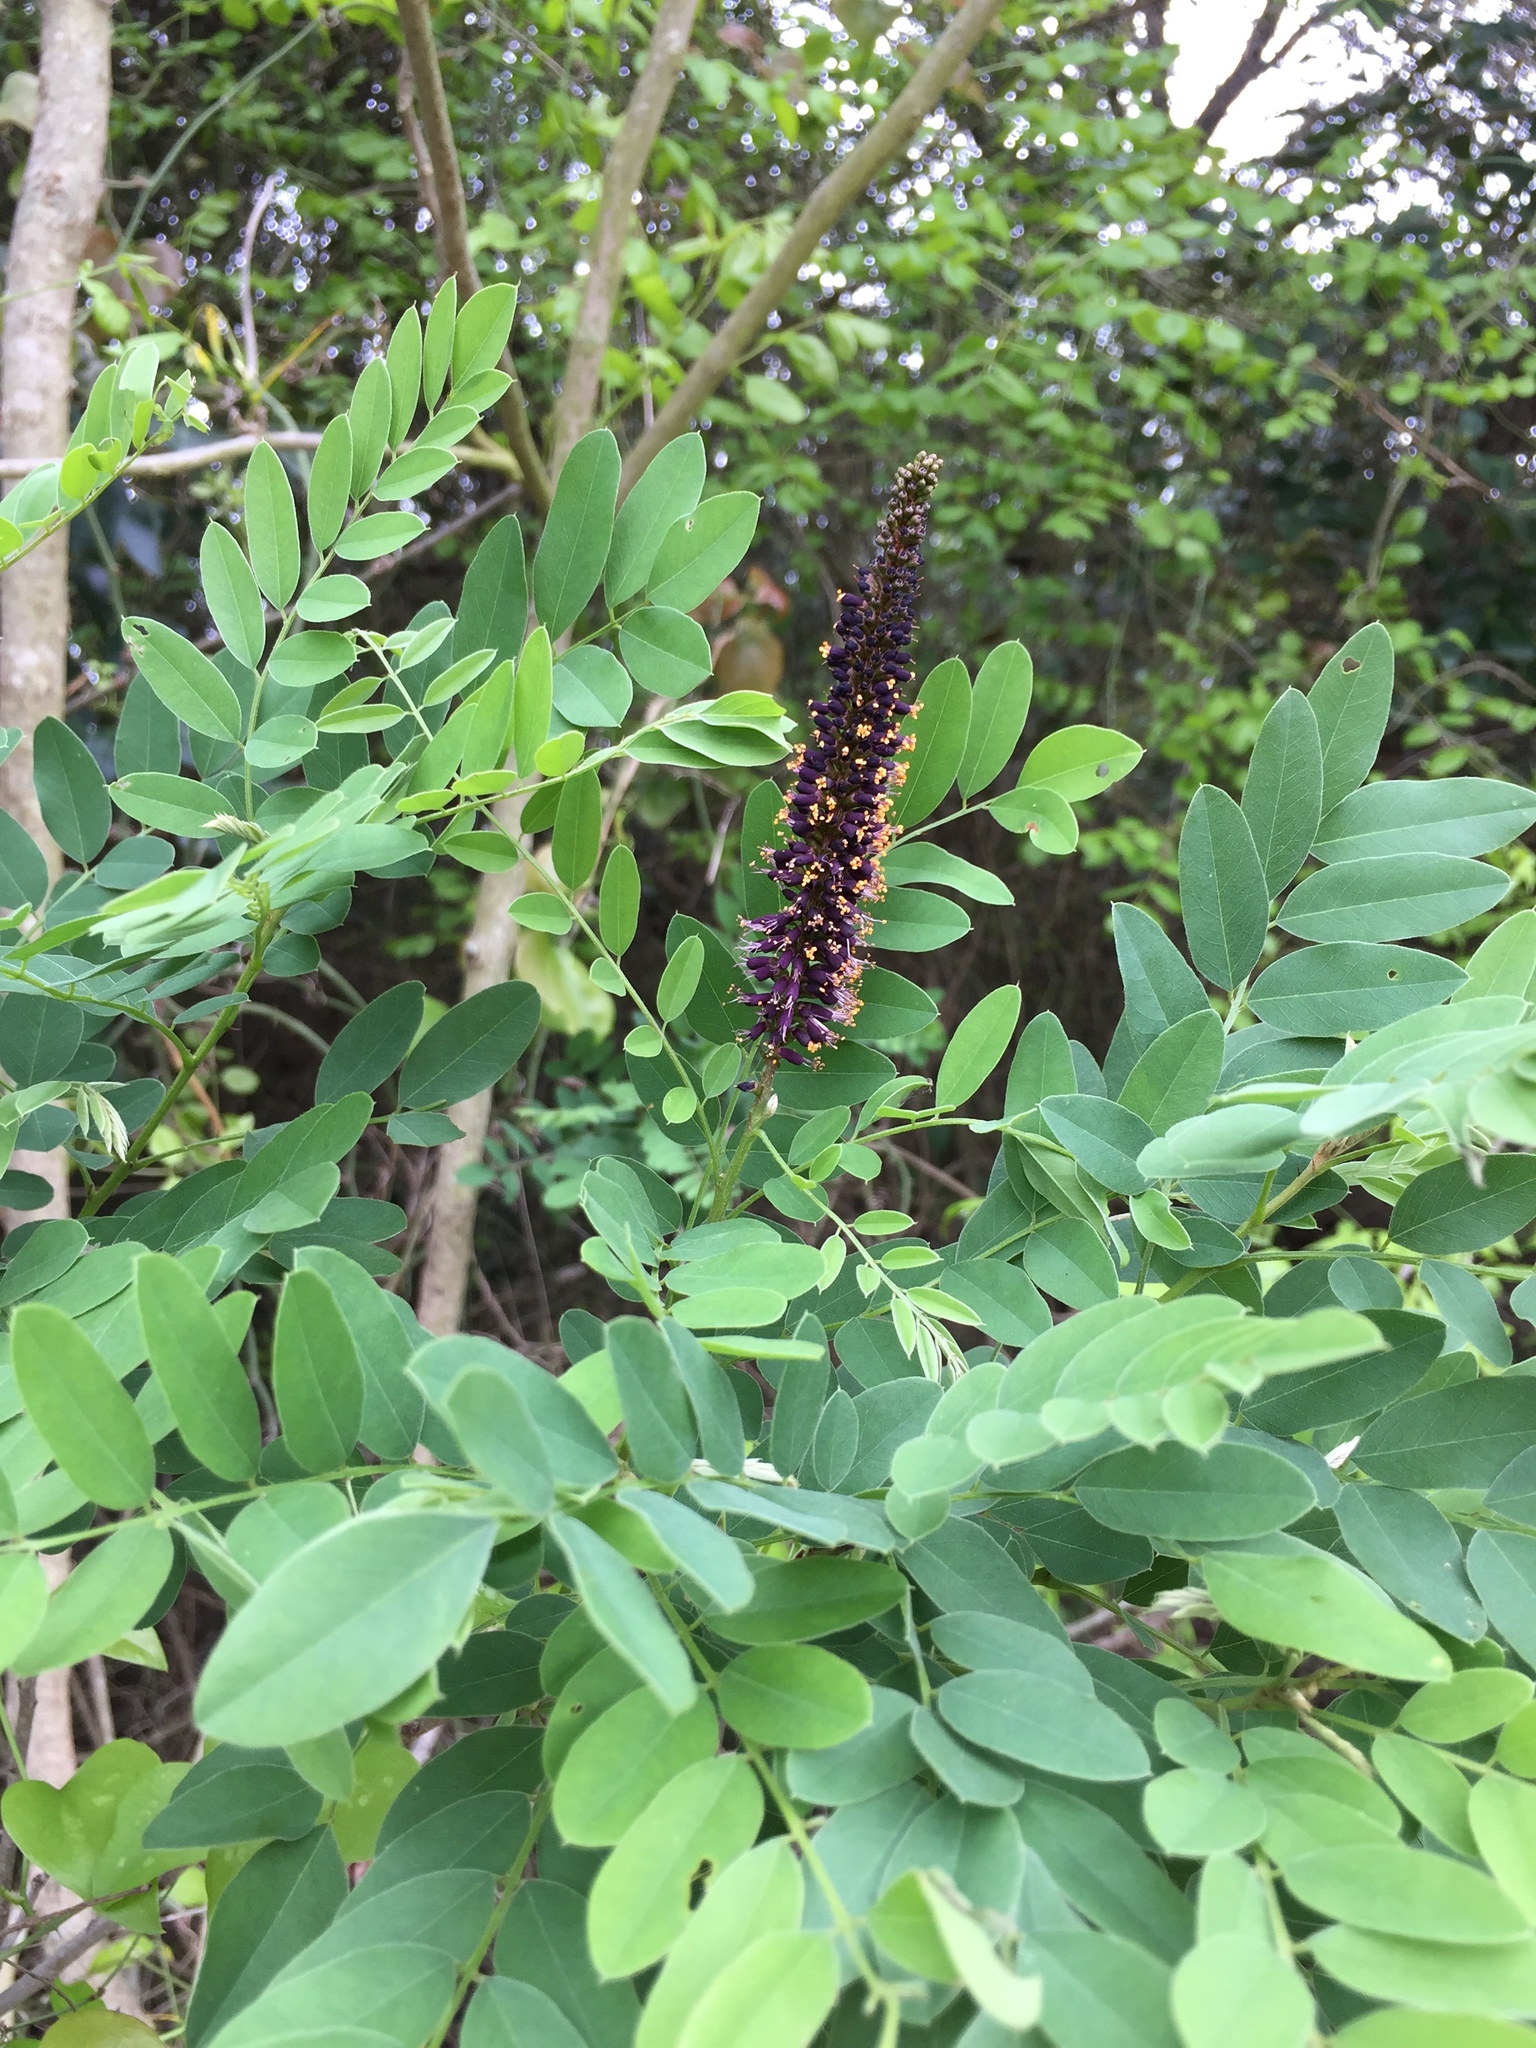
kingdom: Plantae
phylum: Tracheophyta
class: Magnoliopsida
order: Fabales
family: Fabaceae
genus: Amorpha
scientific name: Amorpha fruticosa
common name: False indigo
